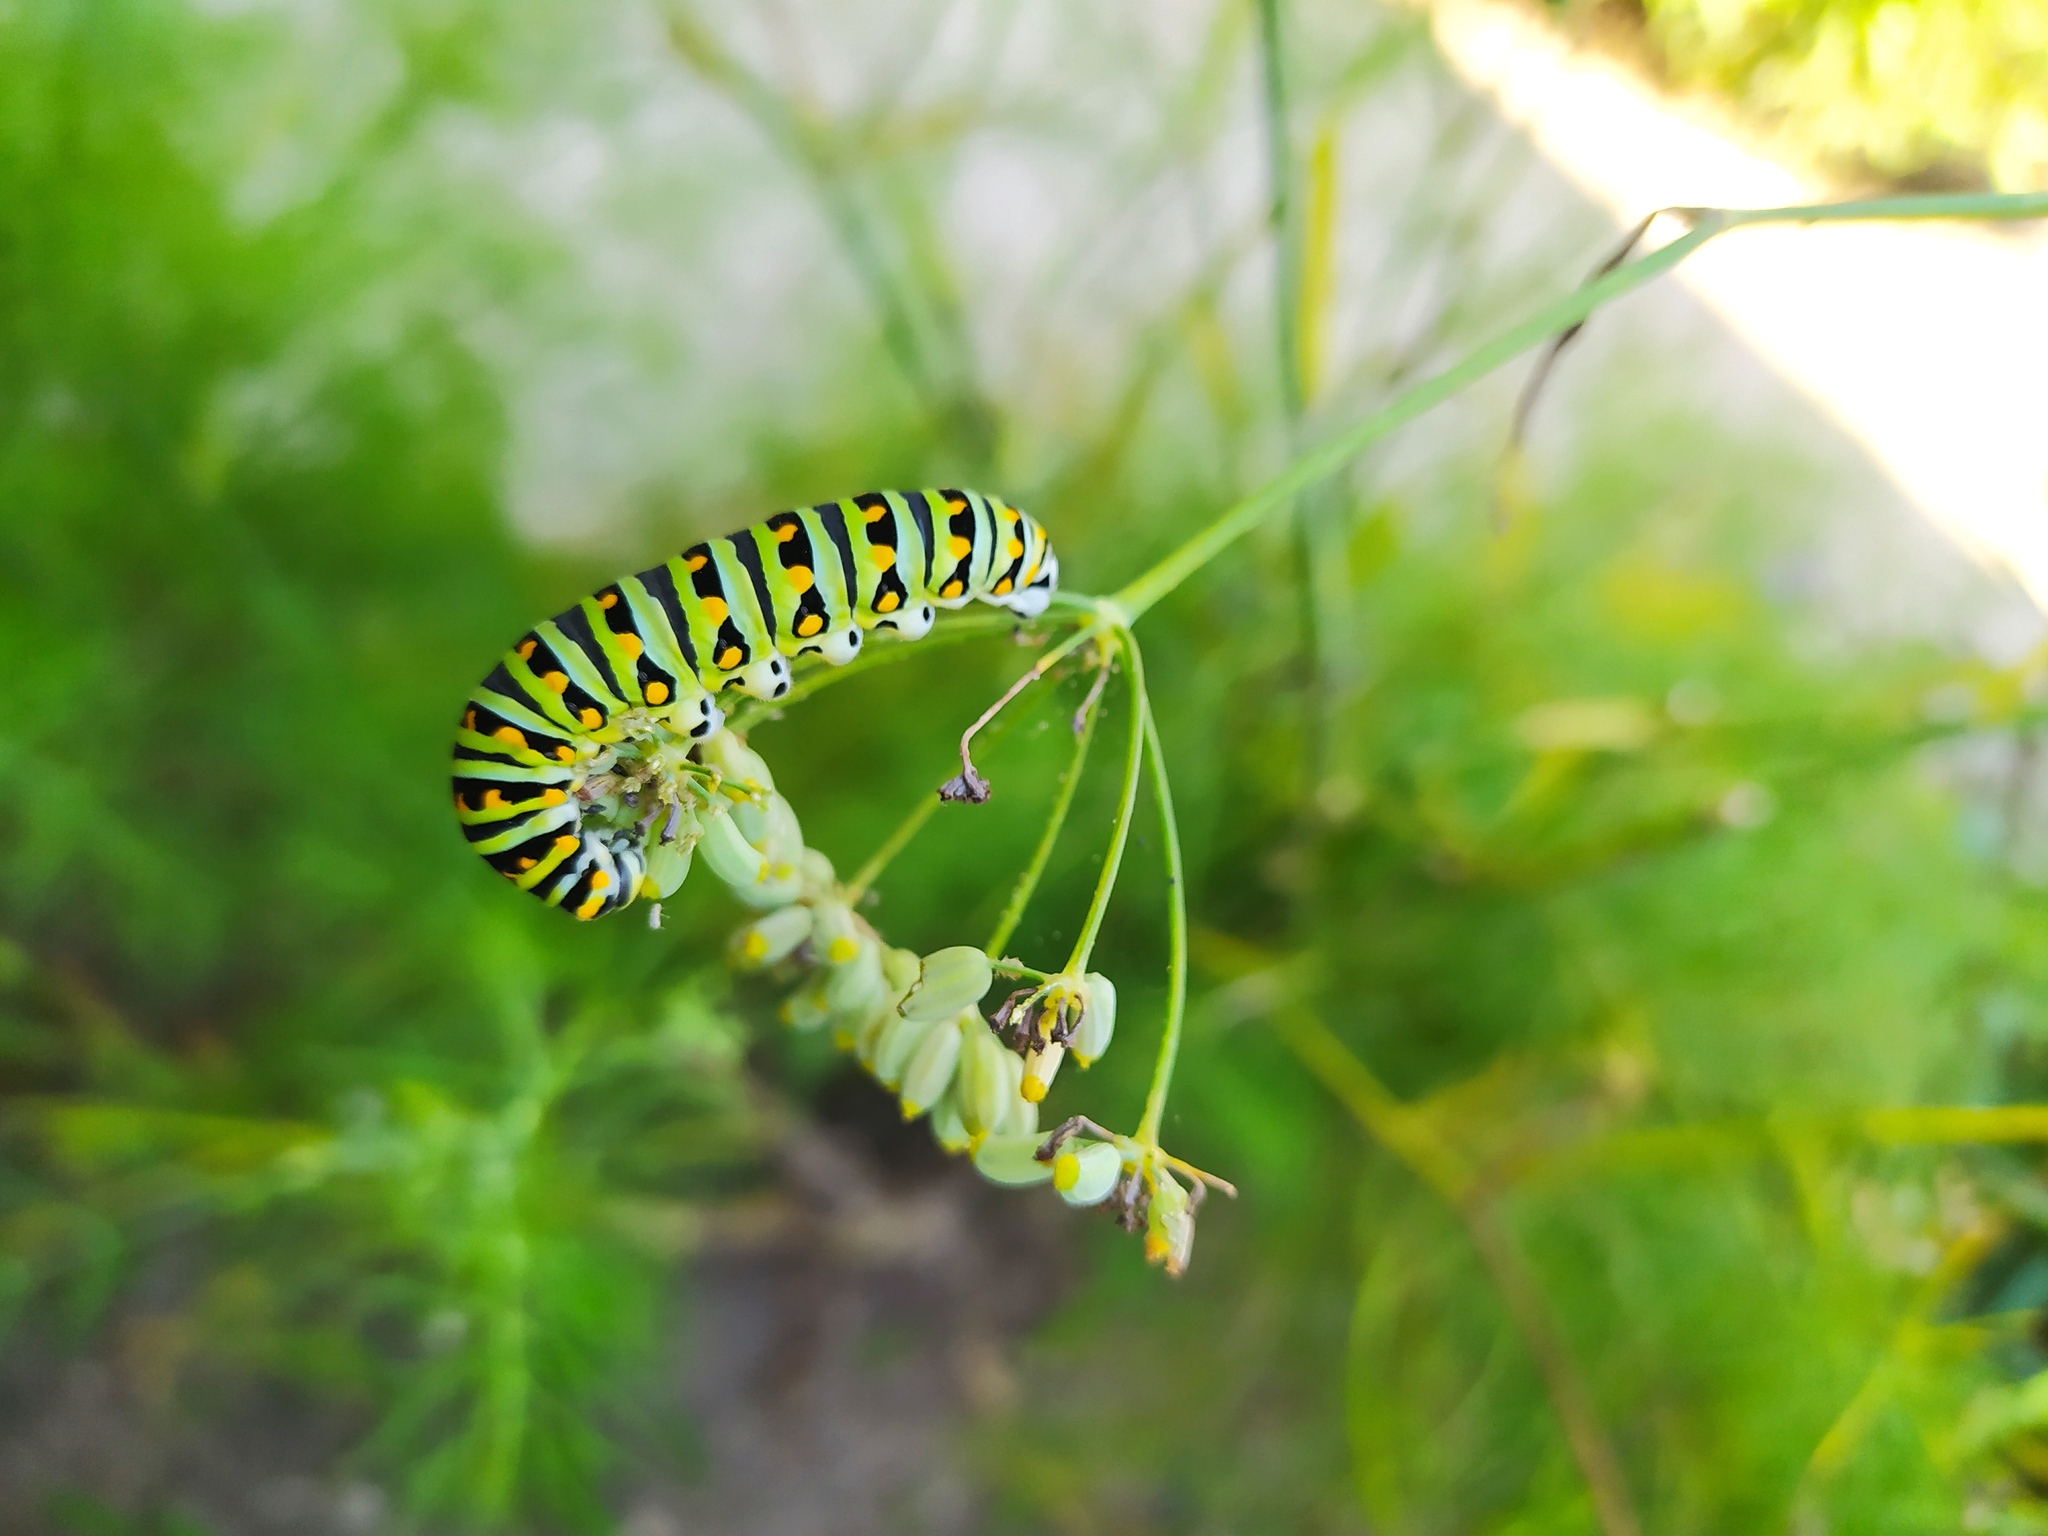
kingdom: Animalia
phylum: Arthropoda
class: Insecta
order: Lepidoptera
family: Papilionidae
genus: Papilio
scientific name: Papilio polyxenes
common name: Black swallowtail
